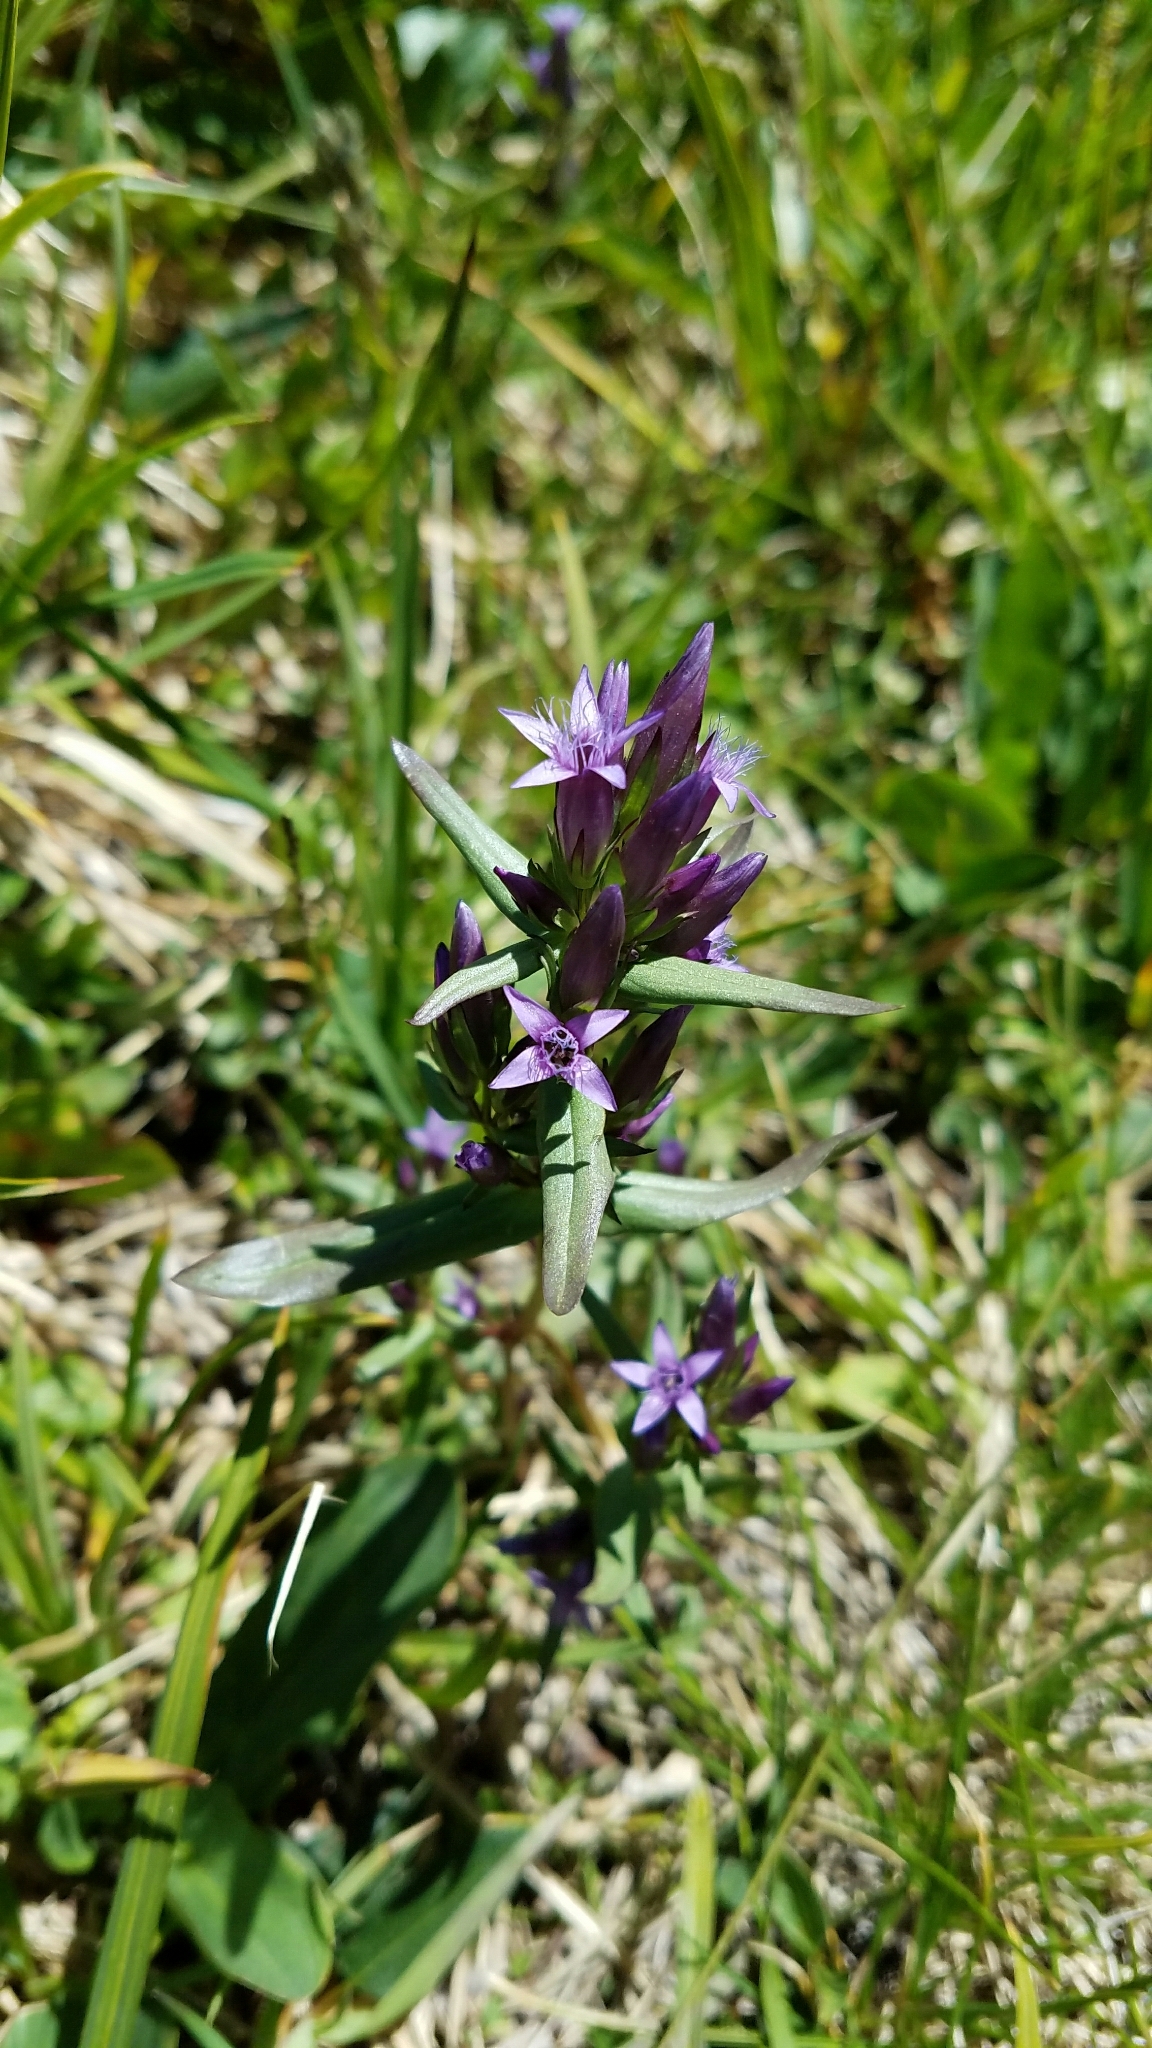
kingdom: Plantae
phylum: Tracheophyta
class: Magnoliopsida
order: Gentianales
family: Gentianaceae
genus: Gentianella
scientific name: Gentianella amarella
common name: Autumn gentian
